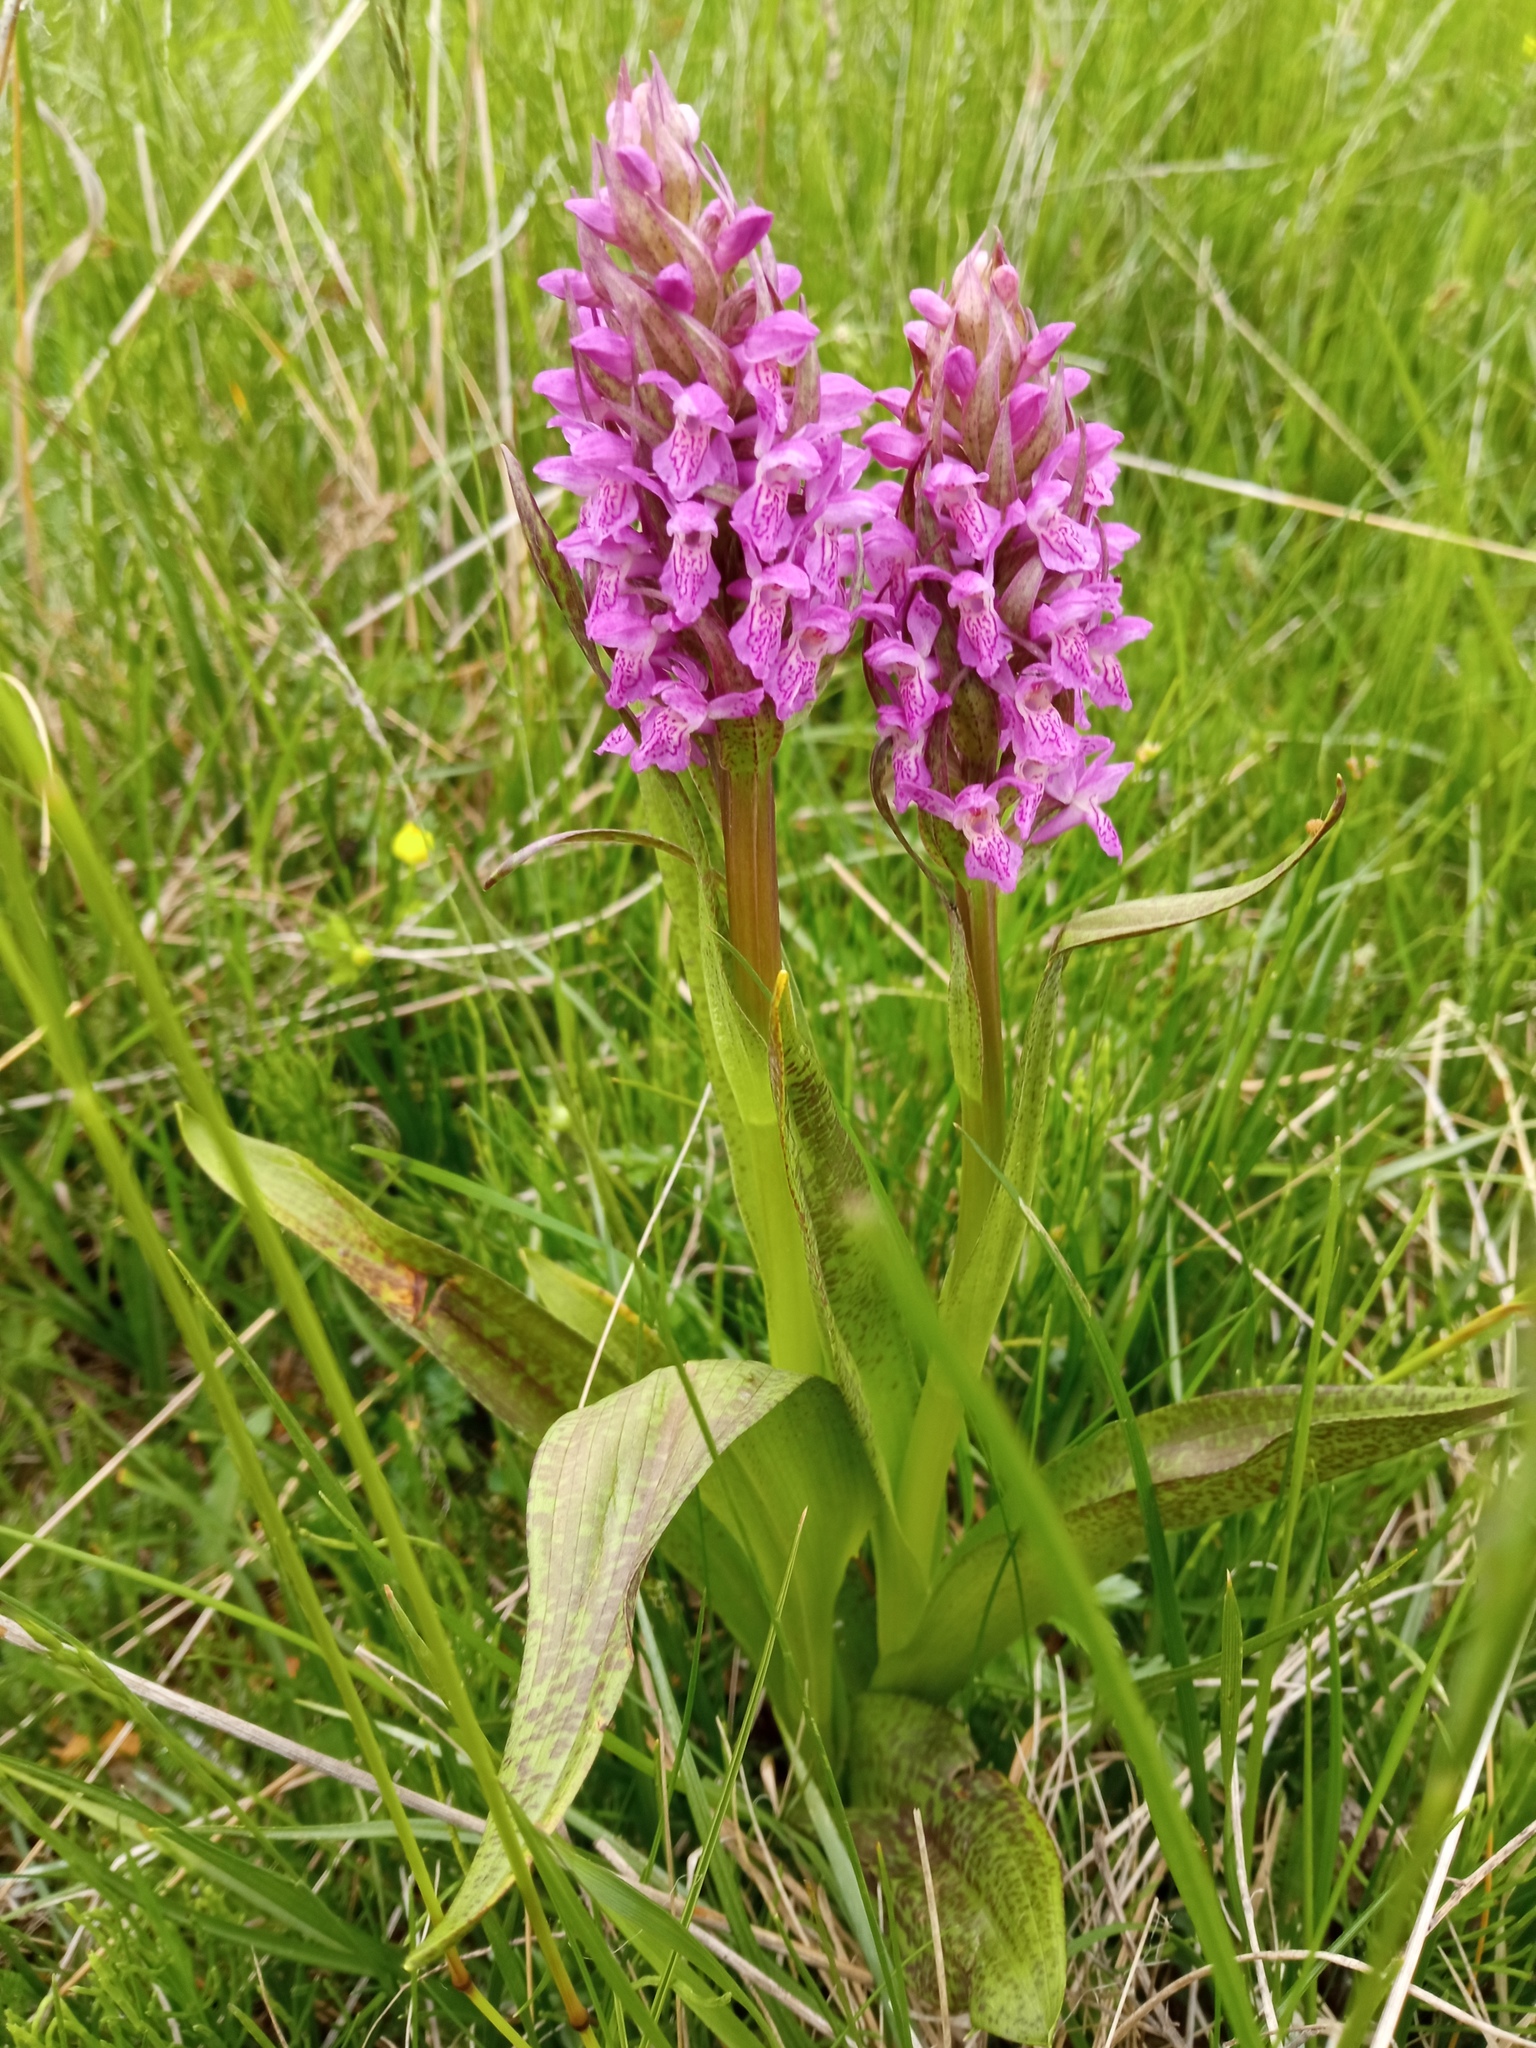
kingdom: Plantae
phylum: Tracheophyta
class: Liliopsida
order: Asparagales
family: Orchidaceae
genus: Dactylorhiza
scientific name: Dactylorhiza incarnata
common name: Early marsh-orchid
